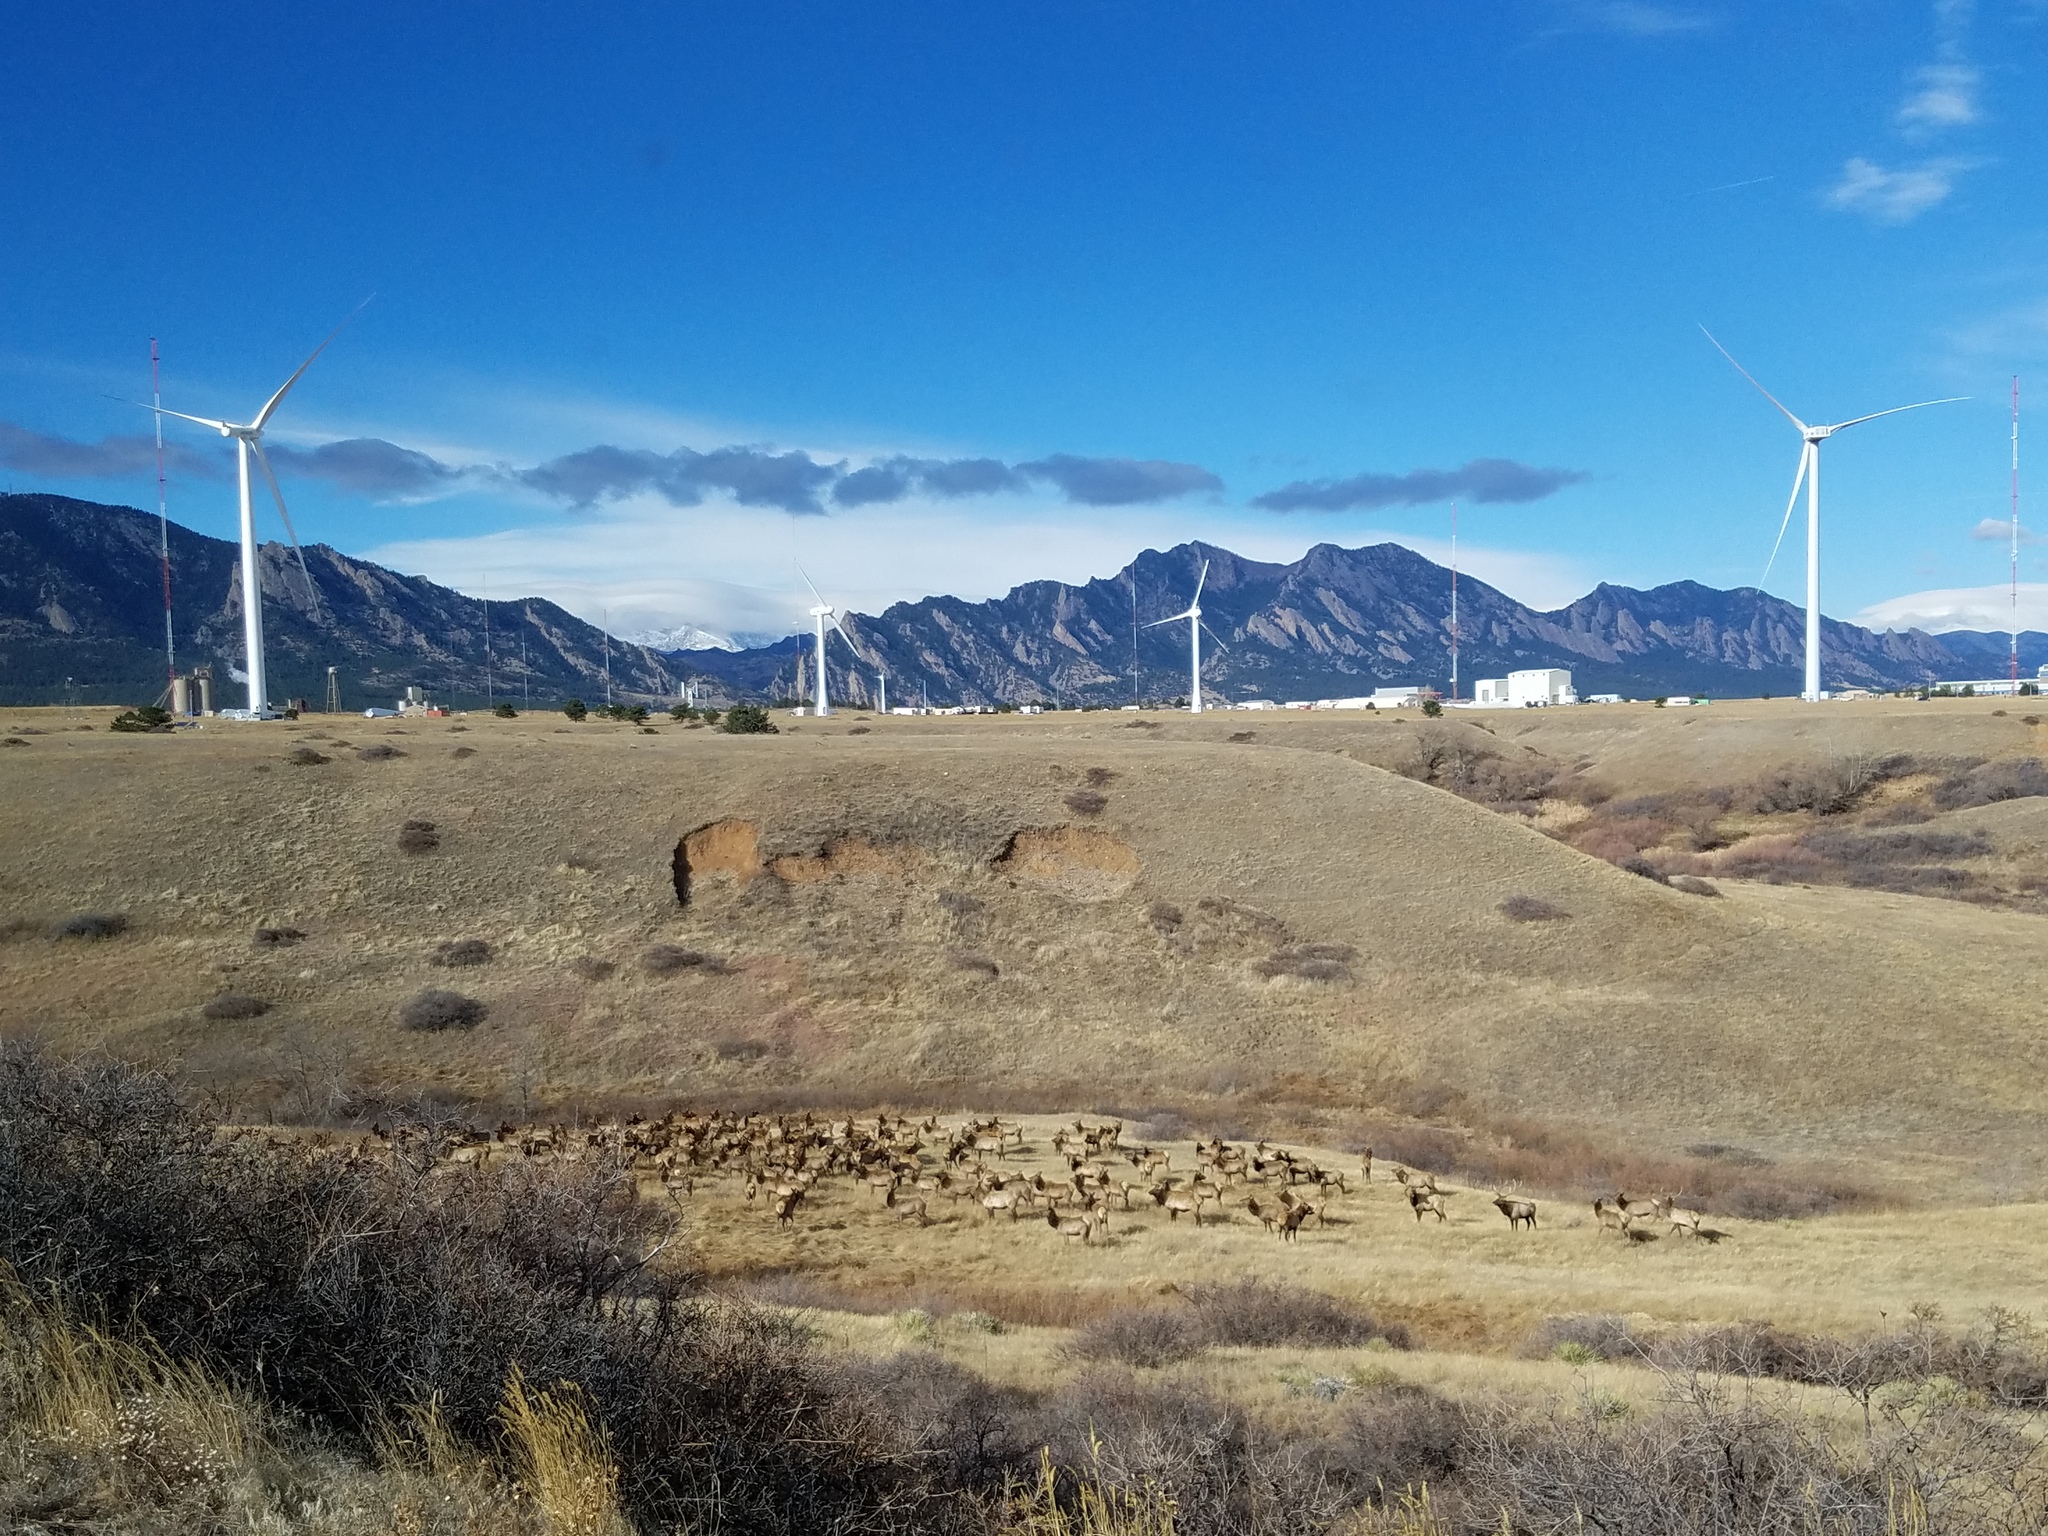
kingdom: Animalia
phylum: Chordata
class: Mammalia
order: Artiodactyla
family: Cervidae
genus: Cervus
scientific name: Cervus elaphus
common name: Red deer
